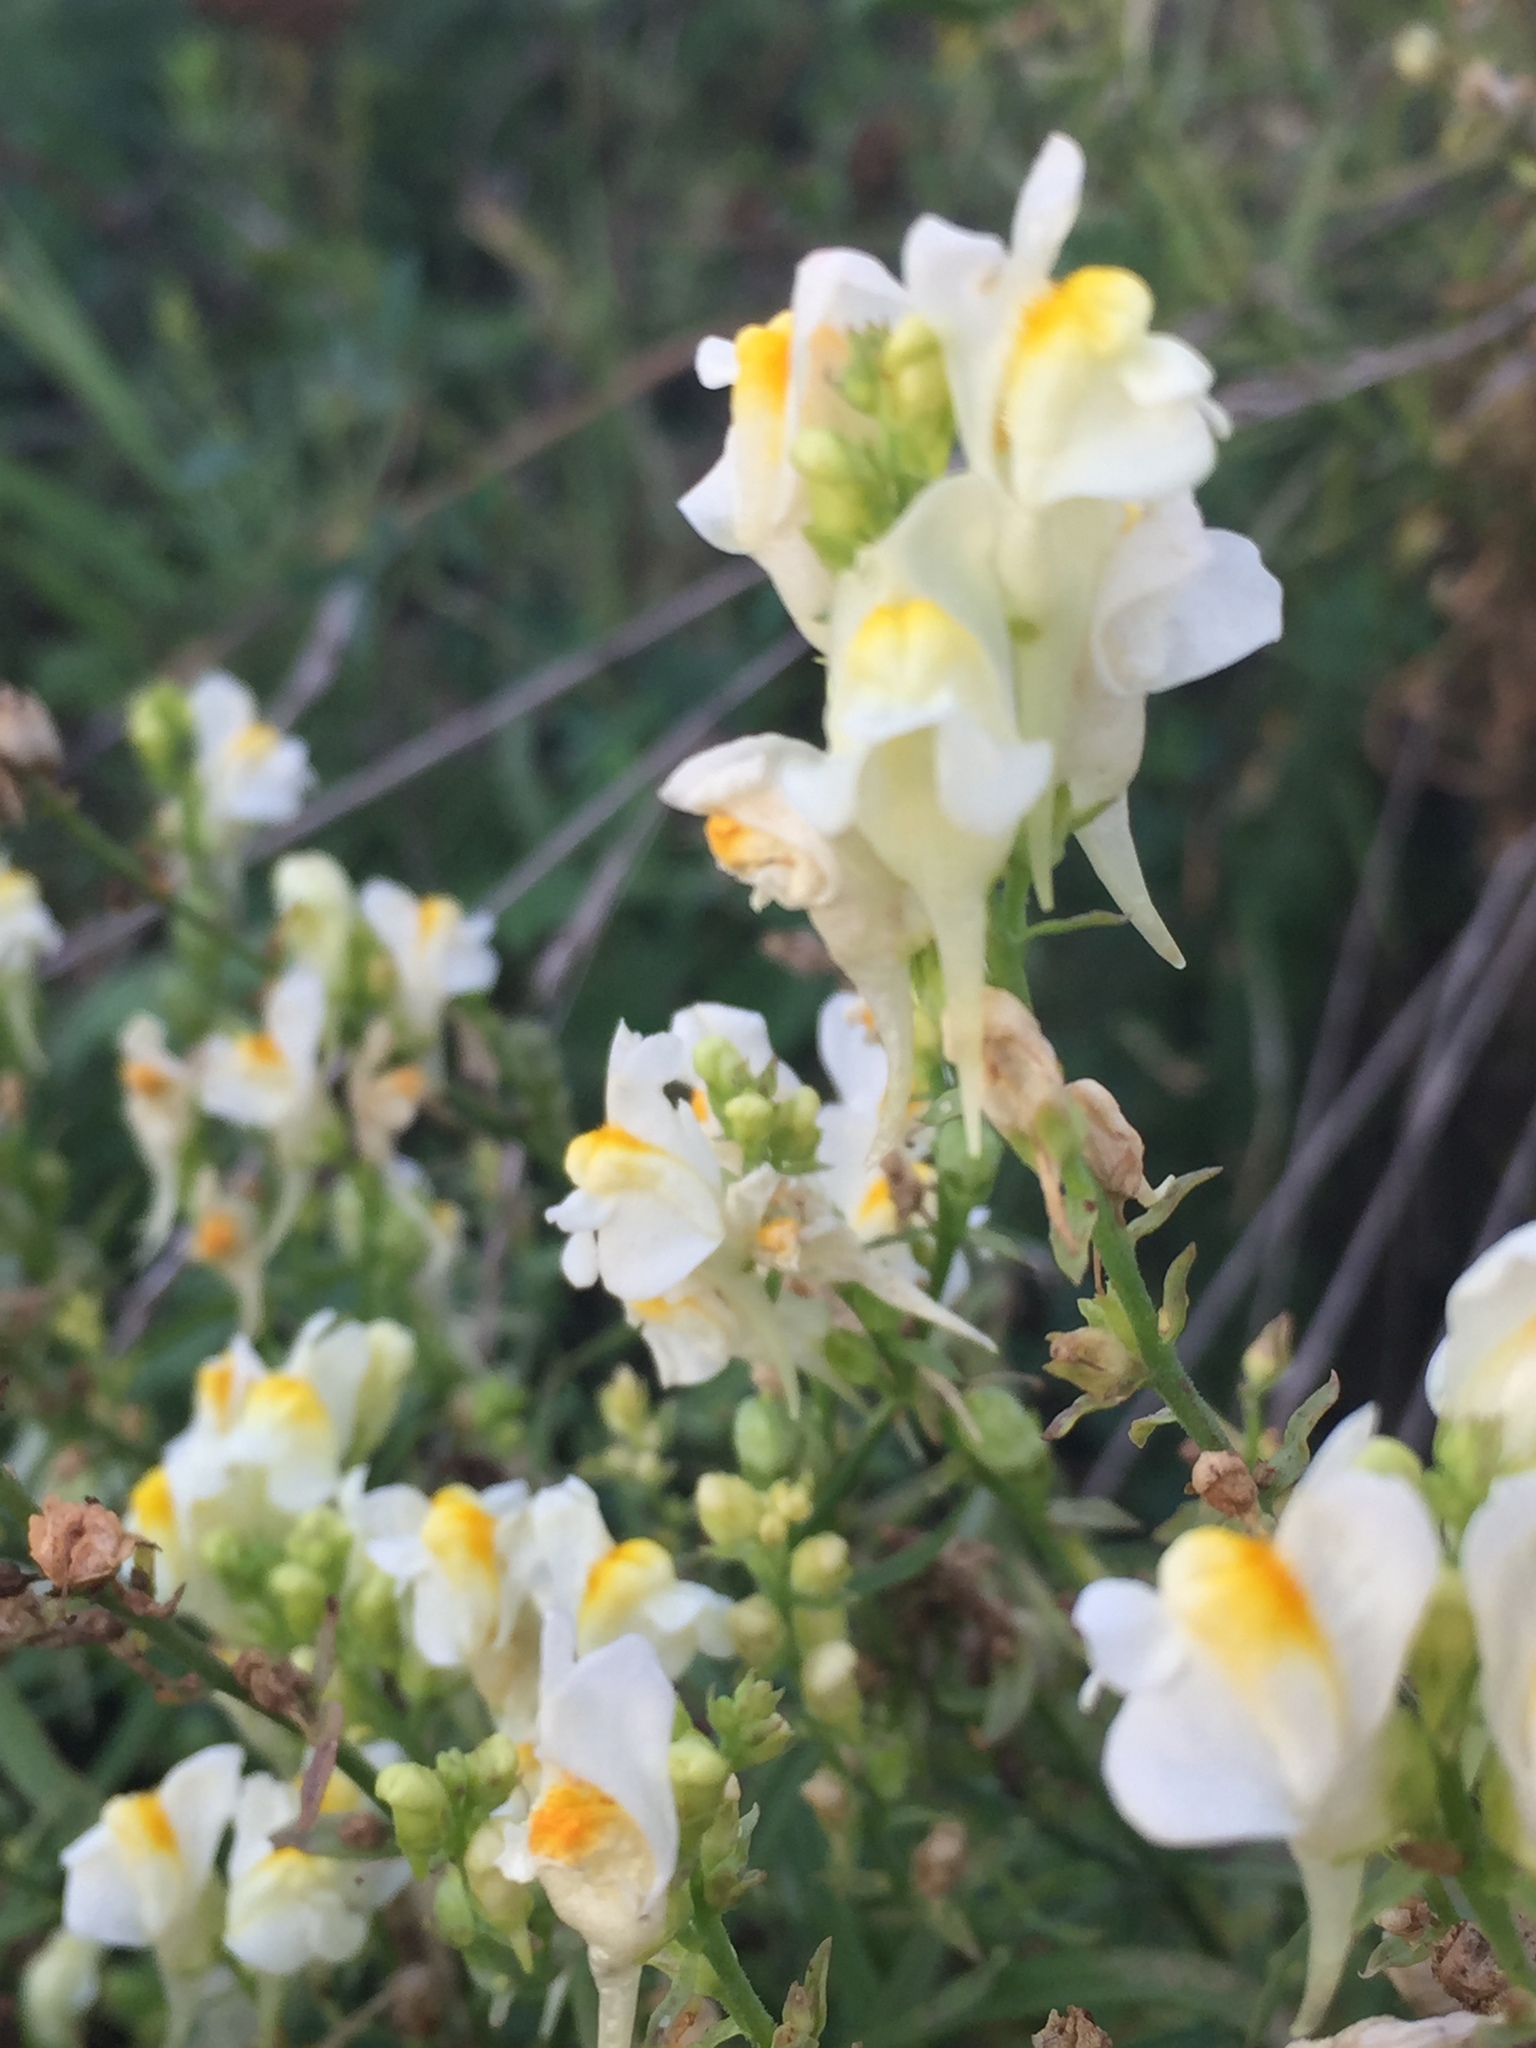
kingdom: Plantae
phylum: Tracheophyta
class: Magnoliopsida
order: Lamiales
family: Plantaginaceae
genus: Linaria
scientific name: Linaria vulgaris
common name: Butter and eggs
